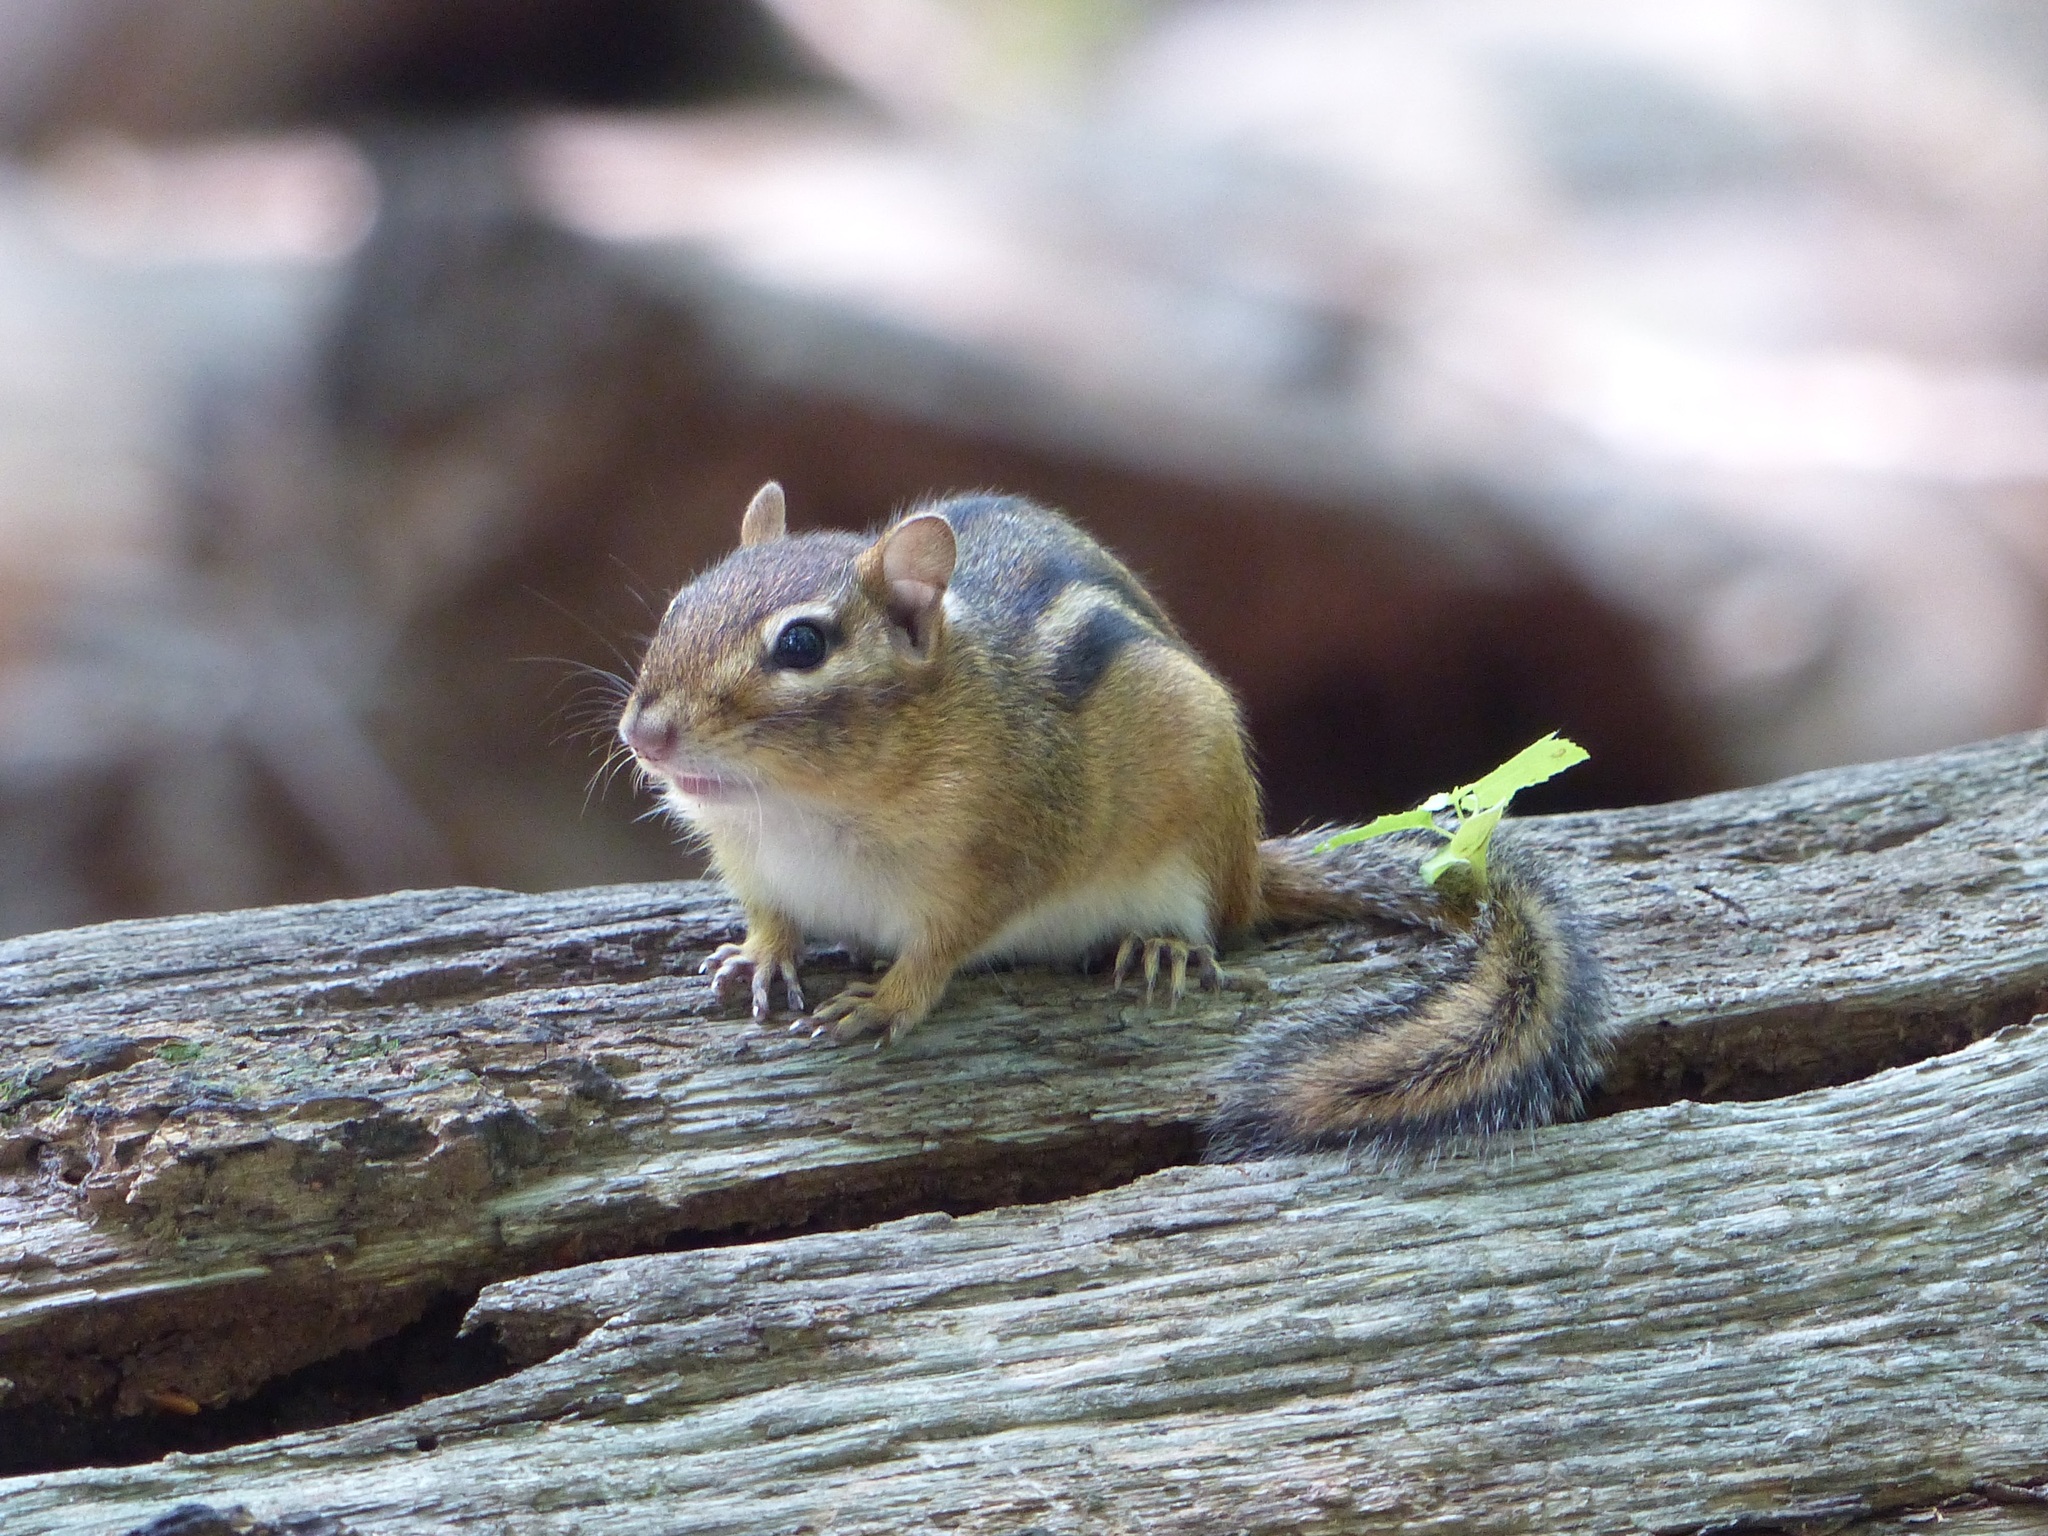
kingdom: Animalia
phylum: Chordata
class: Mammalia
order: Rodentia
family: Sciuridae
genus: Tamias
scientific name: Tamias striatus
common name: Eastern chipmunk
